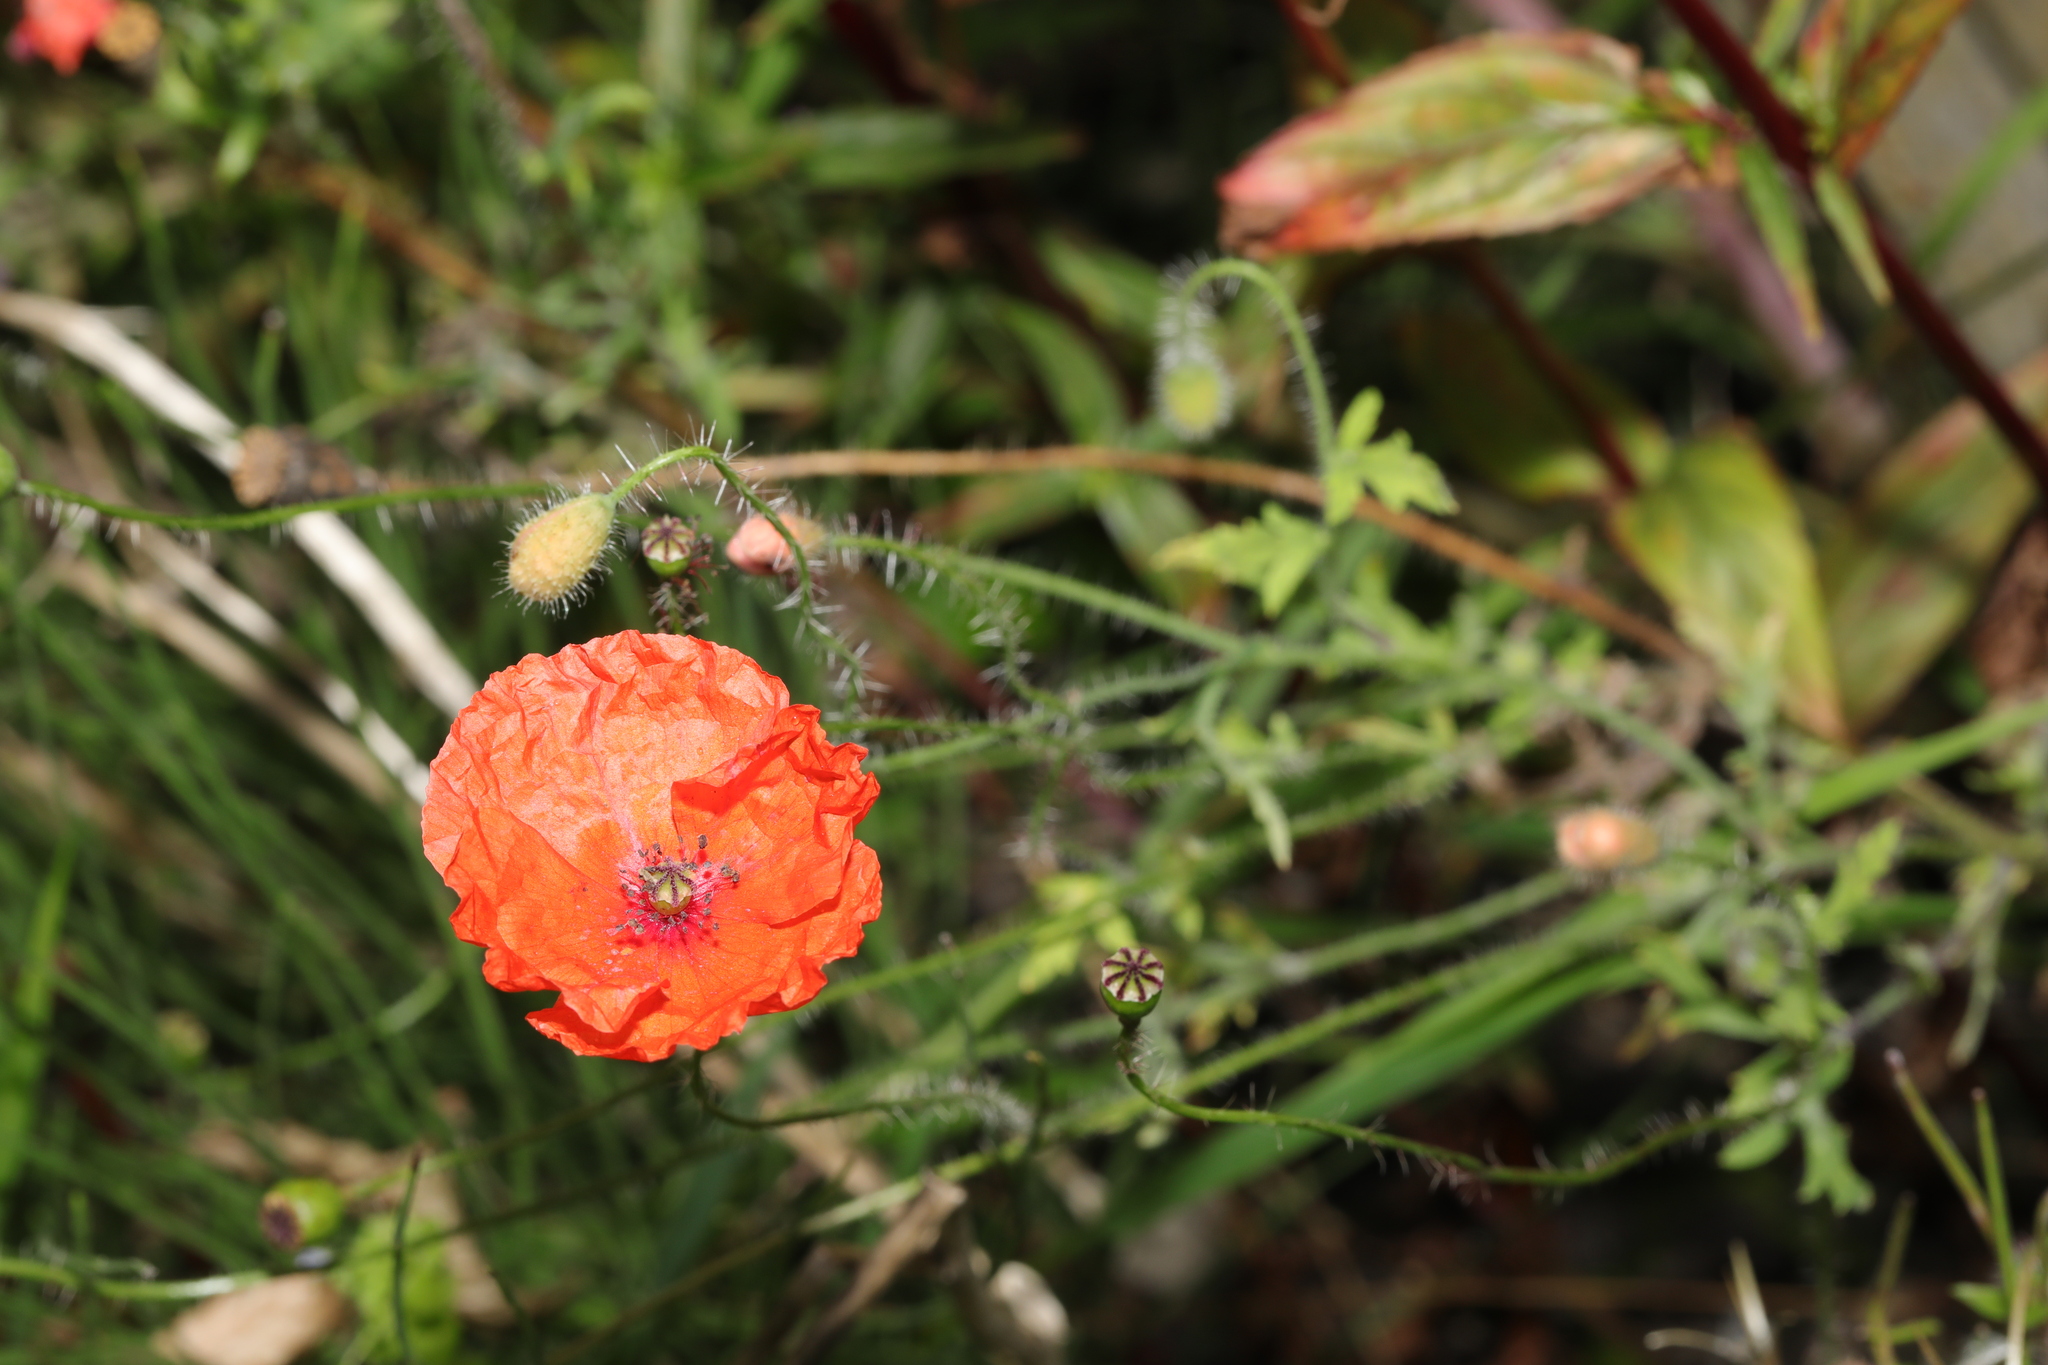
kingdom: Plantae
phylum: Tracheophyta
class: Magnoliopsida
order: Ranunculales
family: Papaveraceae
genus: Papaver
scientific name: Papaver rhoeas
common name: Corn poppy
